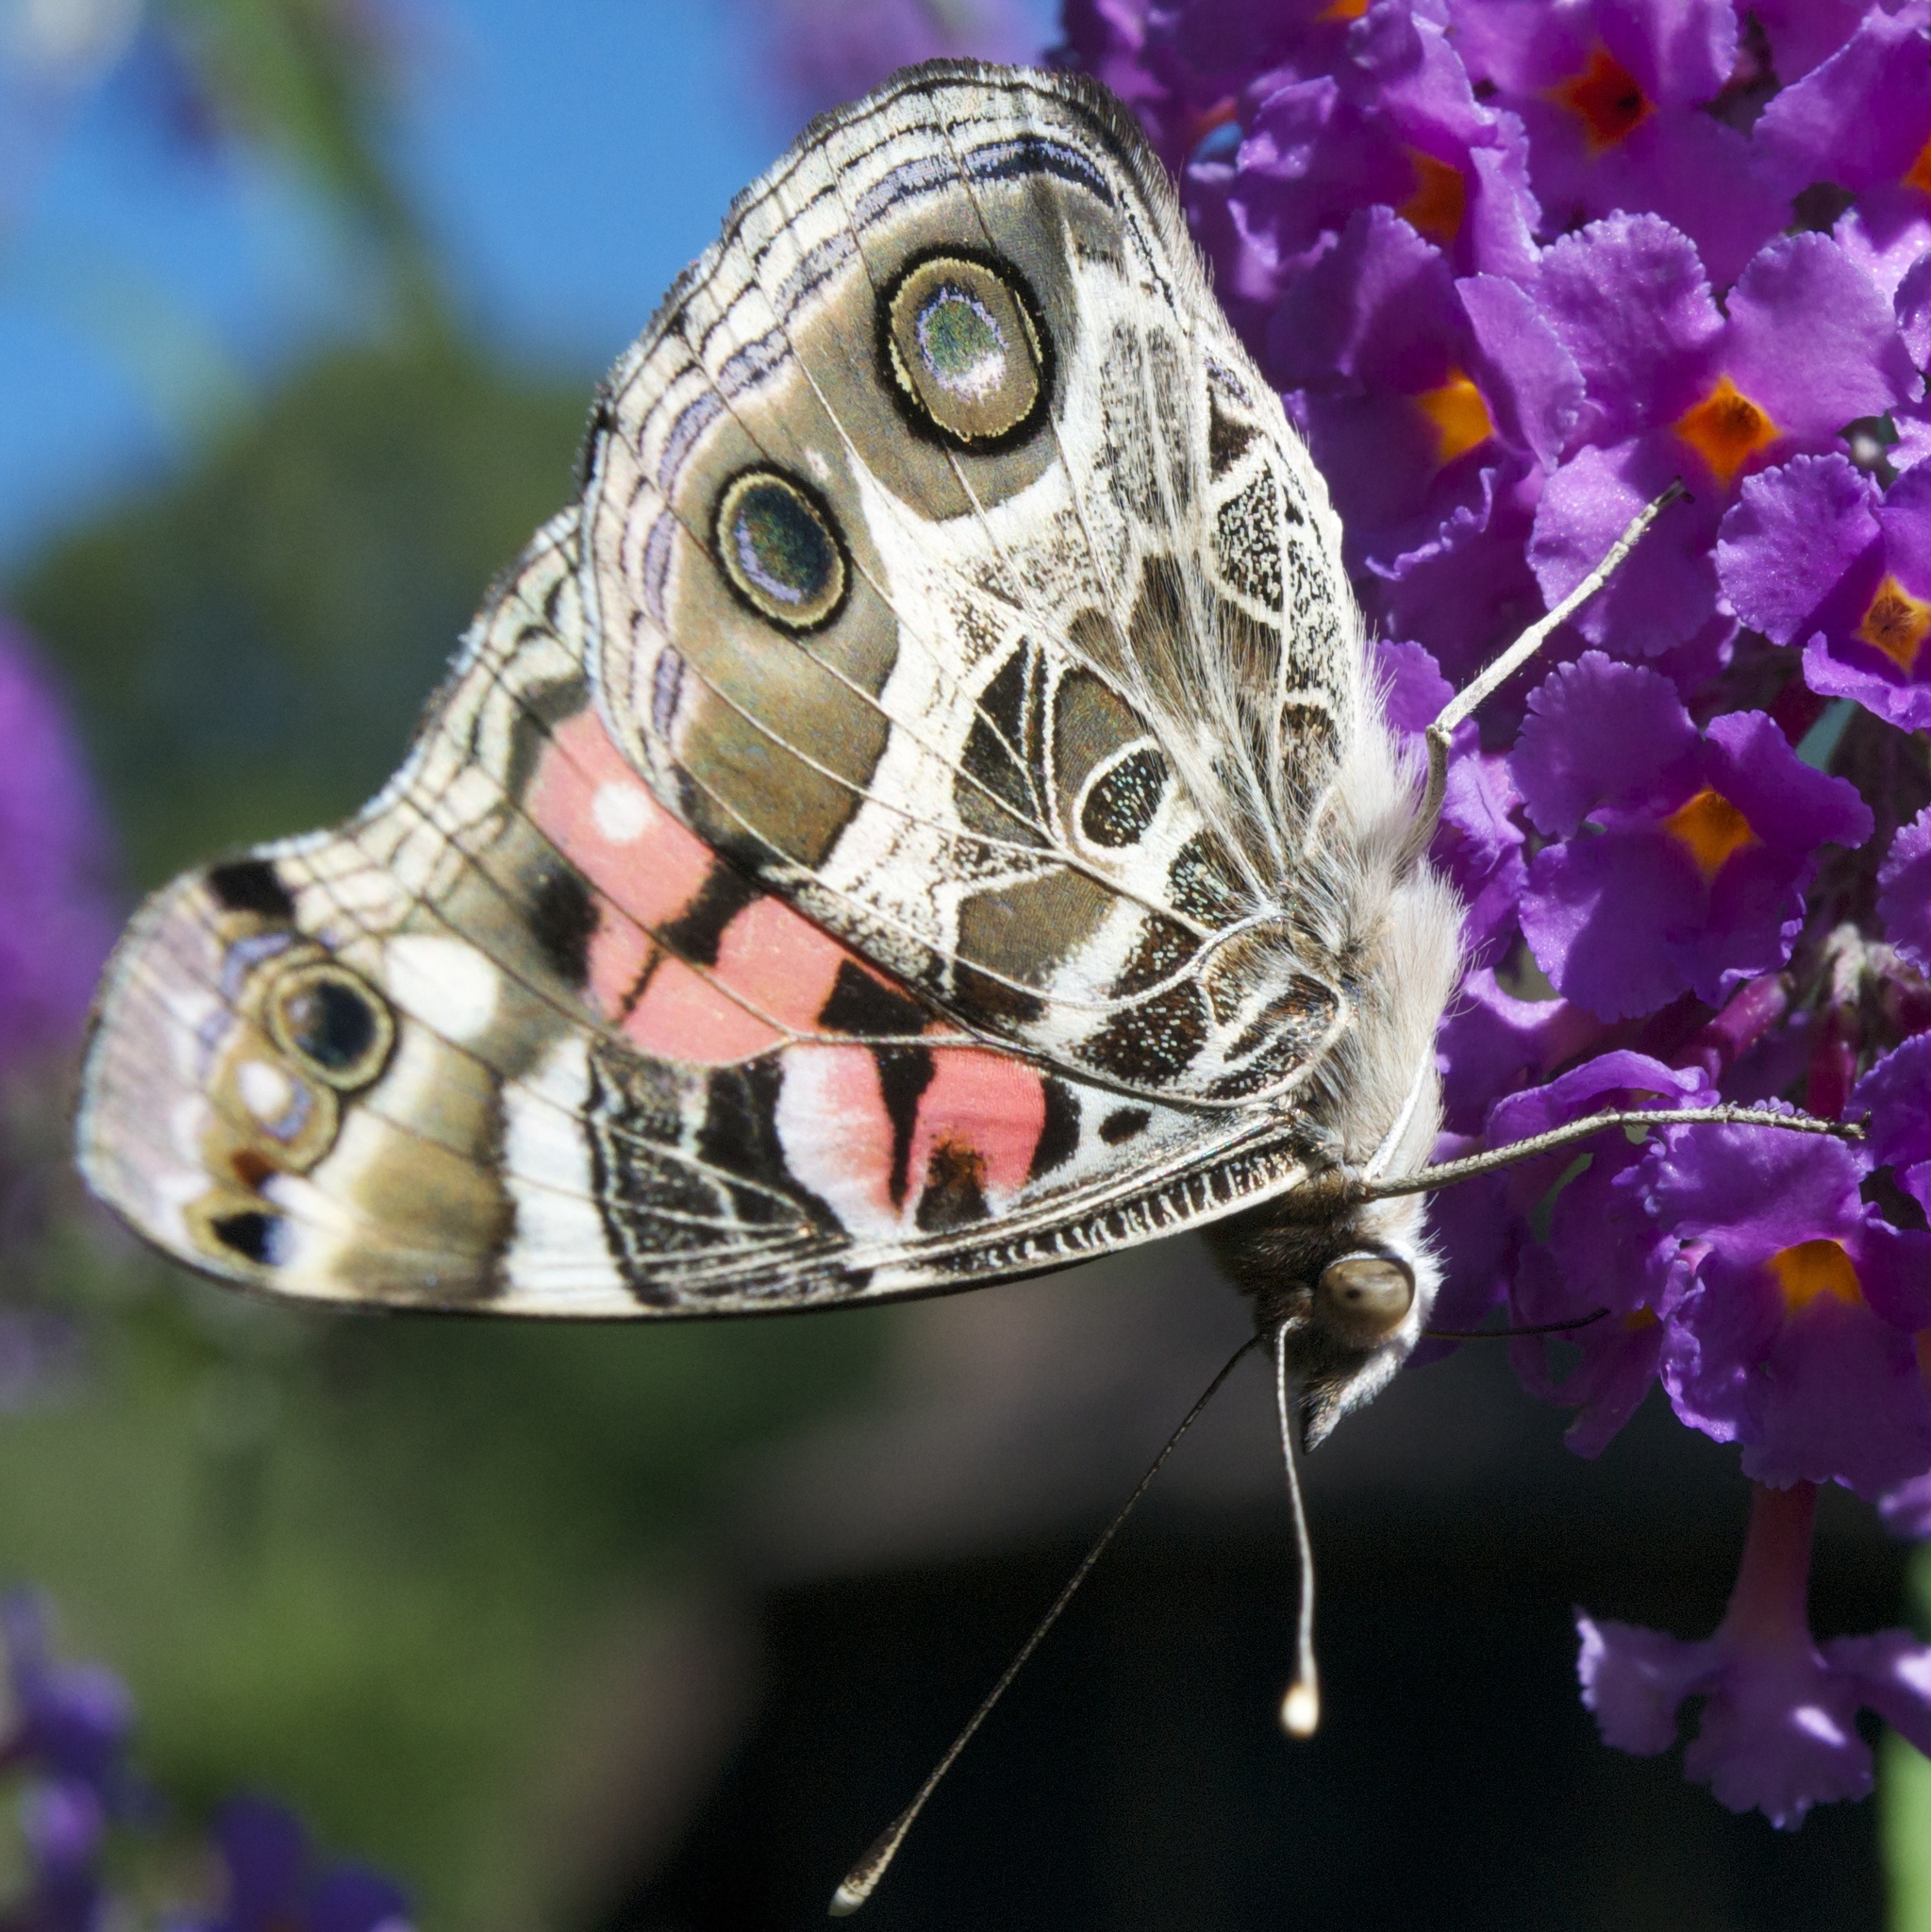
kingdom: Animalia
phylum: Arthropoda
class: Insecta
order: Lepidoptera
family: Nymphalidae
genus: Vanessa
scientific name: Vanessa virginiensis
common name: American lady
